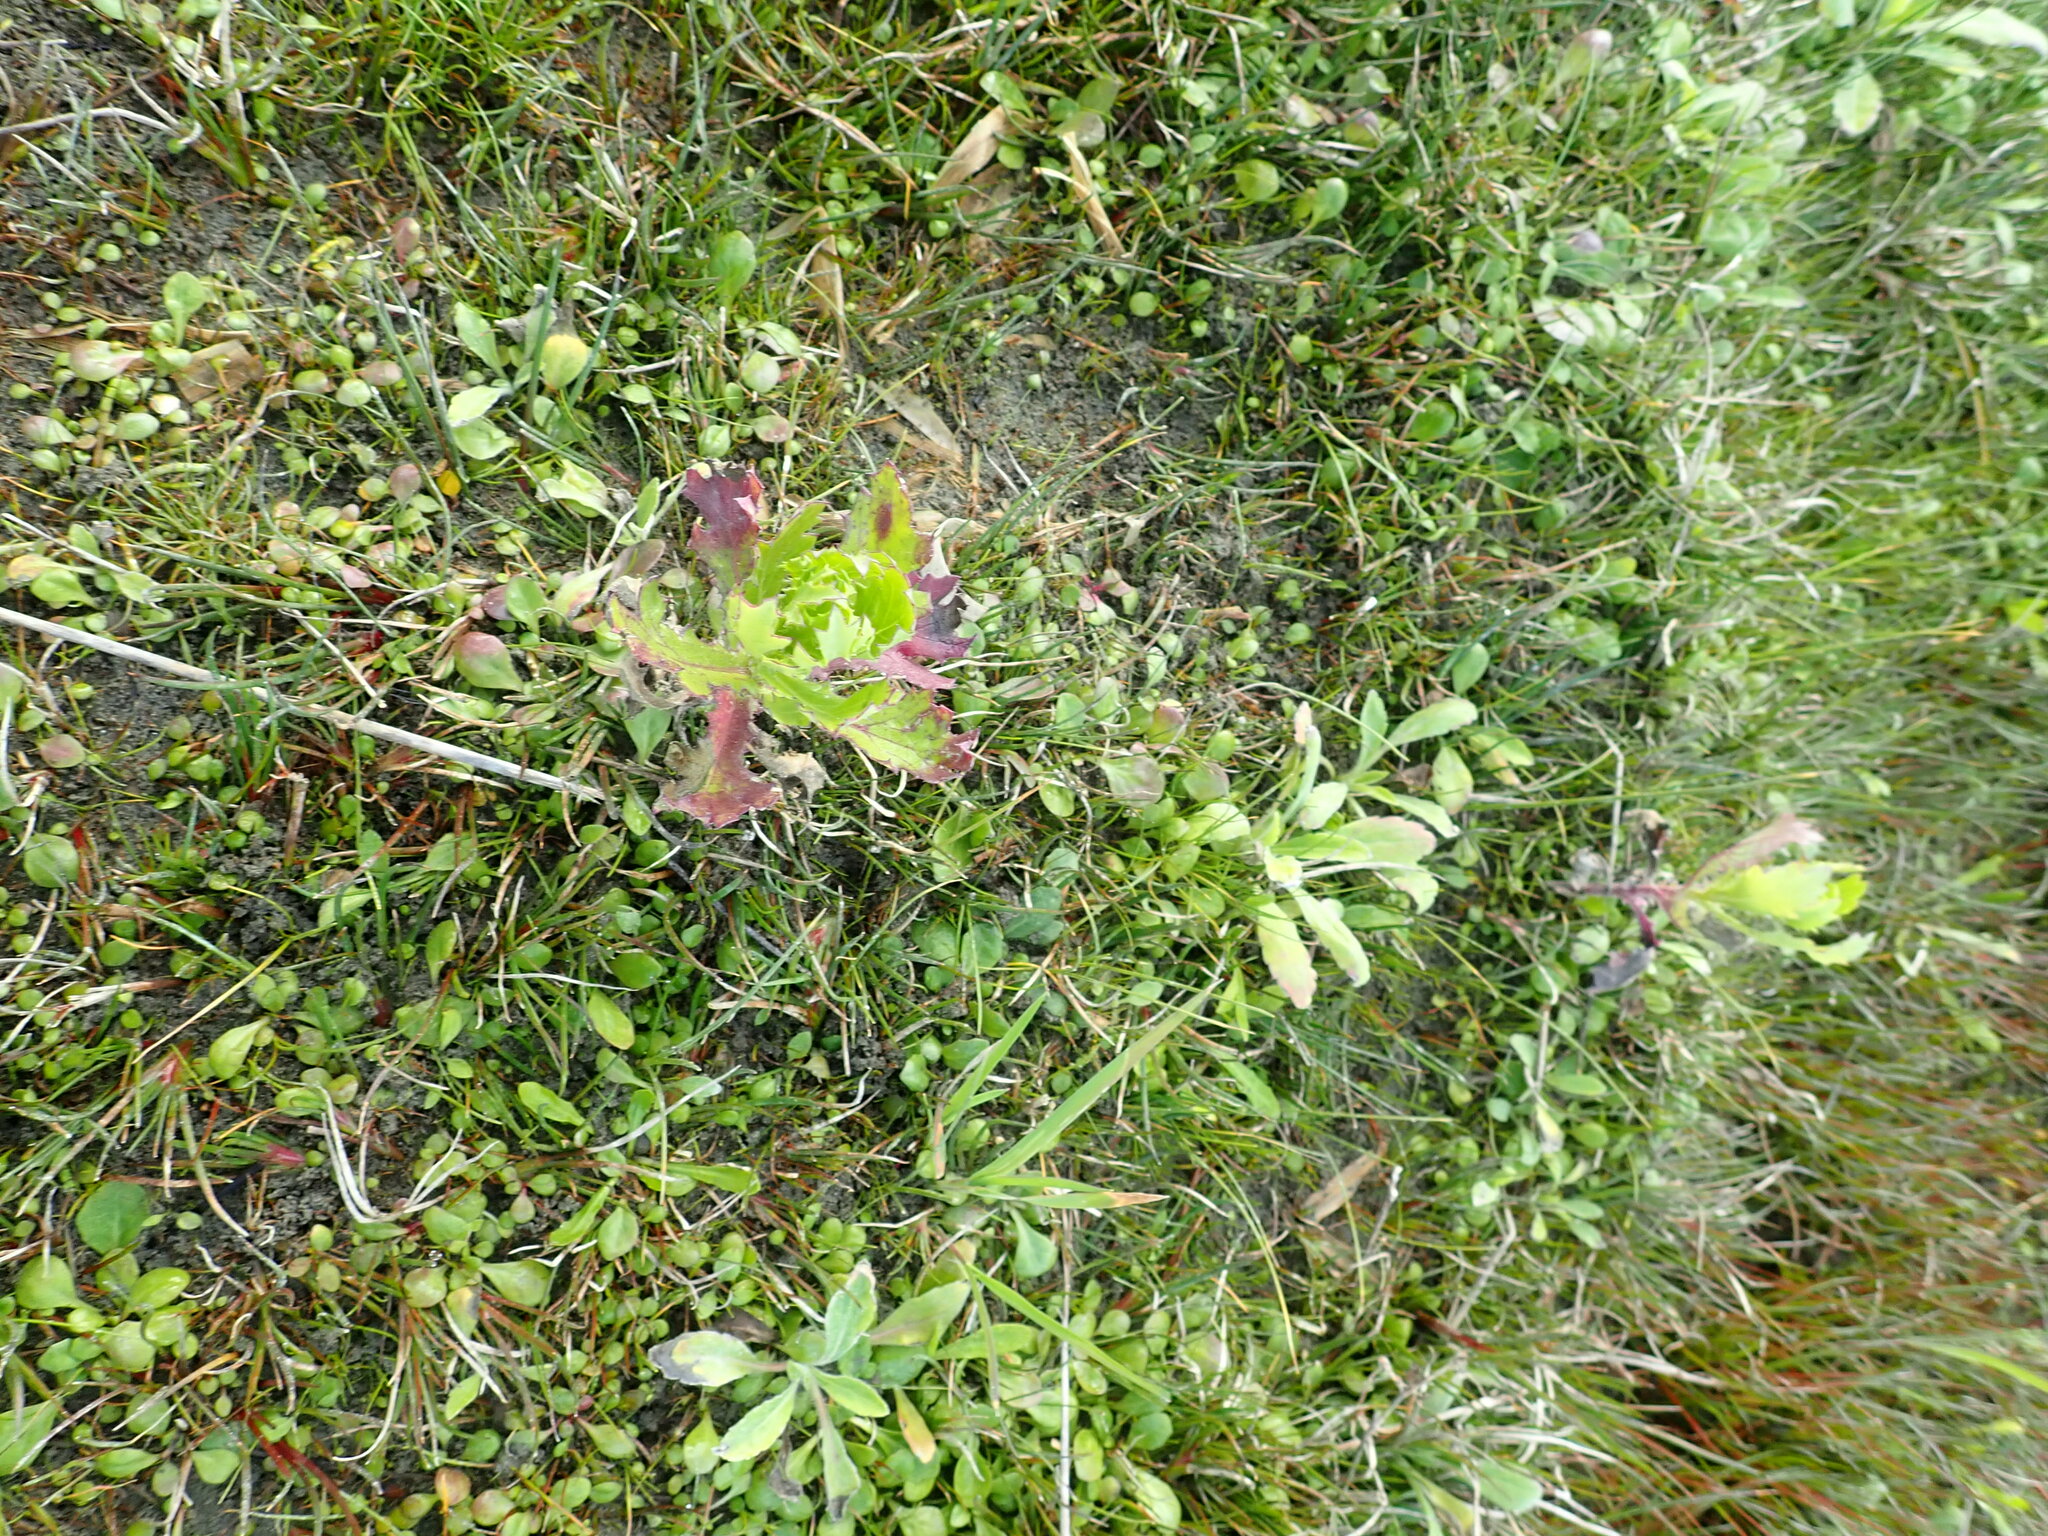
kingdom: Plantae
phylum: Tracheophyta
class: Magnoliopsida
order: Asterales
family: Asteraceae
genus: Senecio
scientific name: Senecio glastifolius
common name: Woad-leaved ragwort
